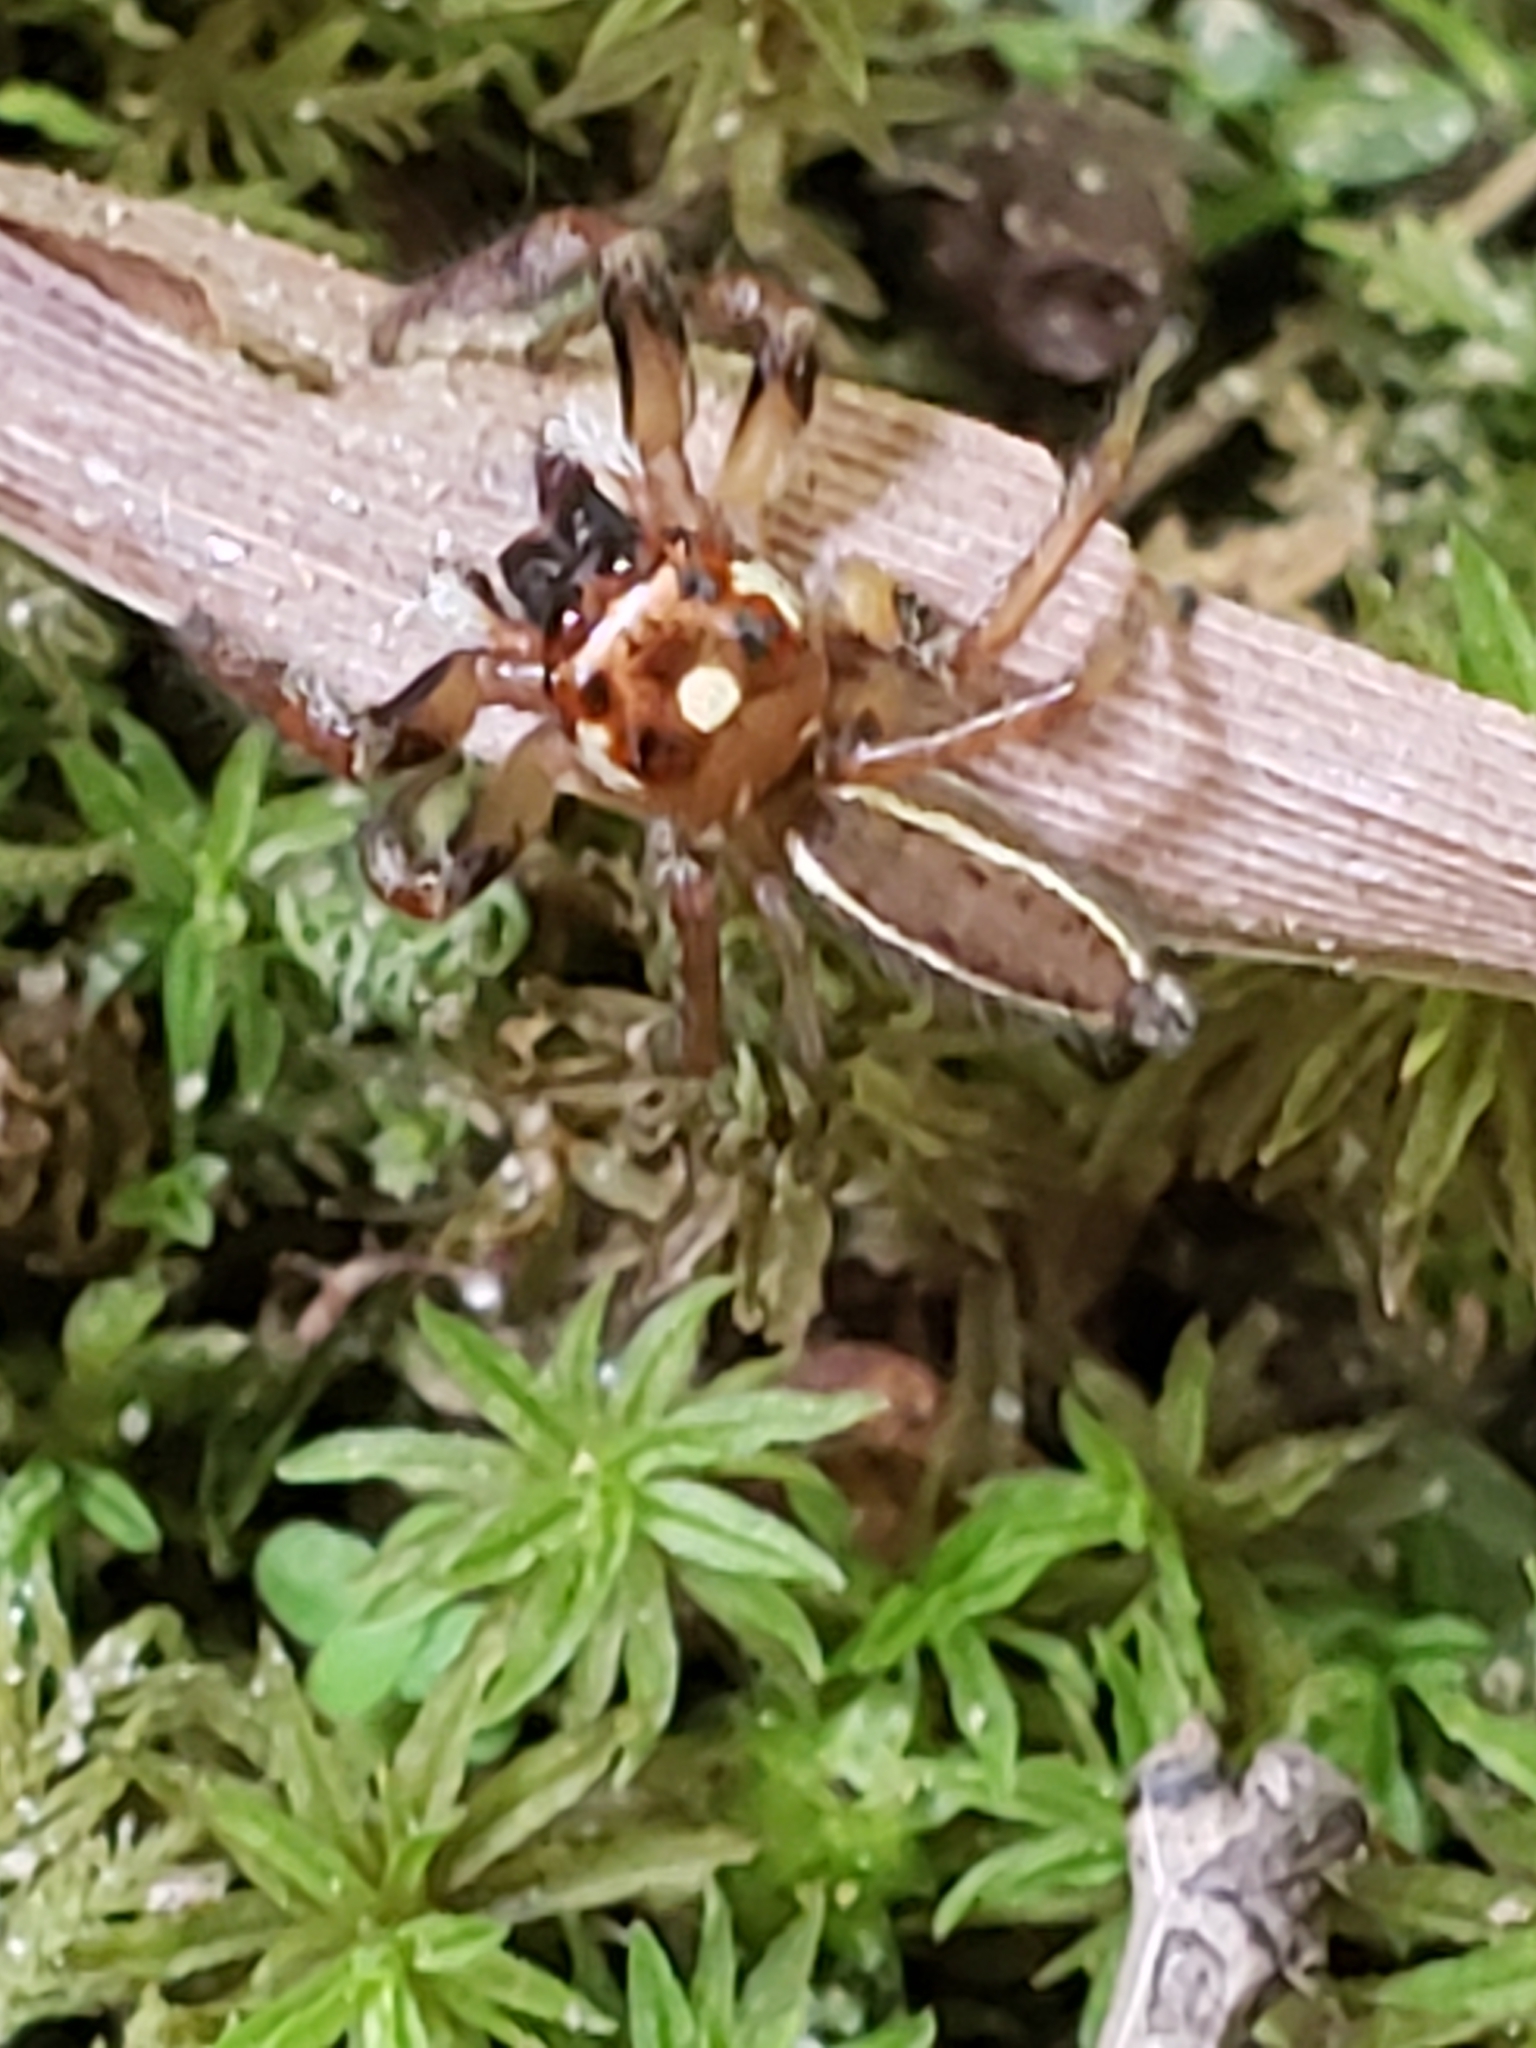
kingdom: Animalia
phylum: Arthropoda
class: Arachnida
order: Araneae
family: Salticidae
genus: Colonus
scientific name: Colonus sylvanus
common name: Jumping spiders
